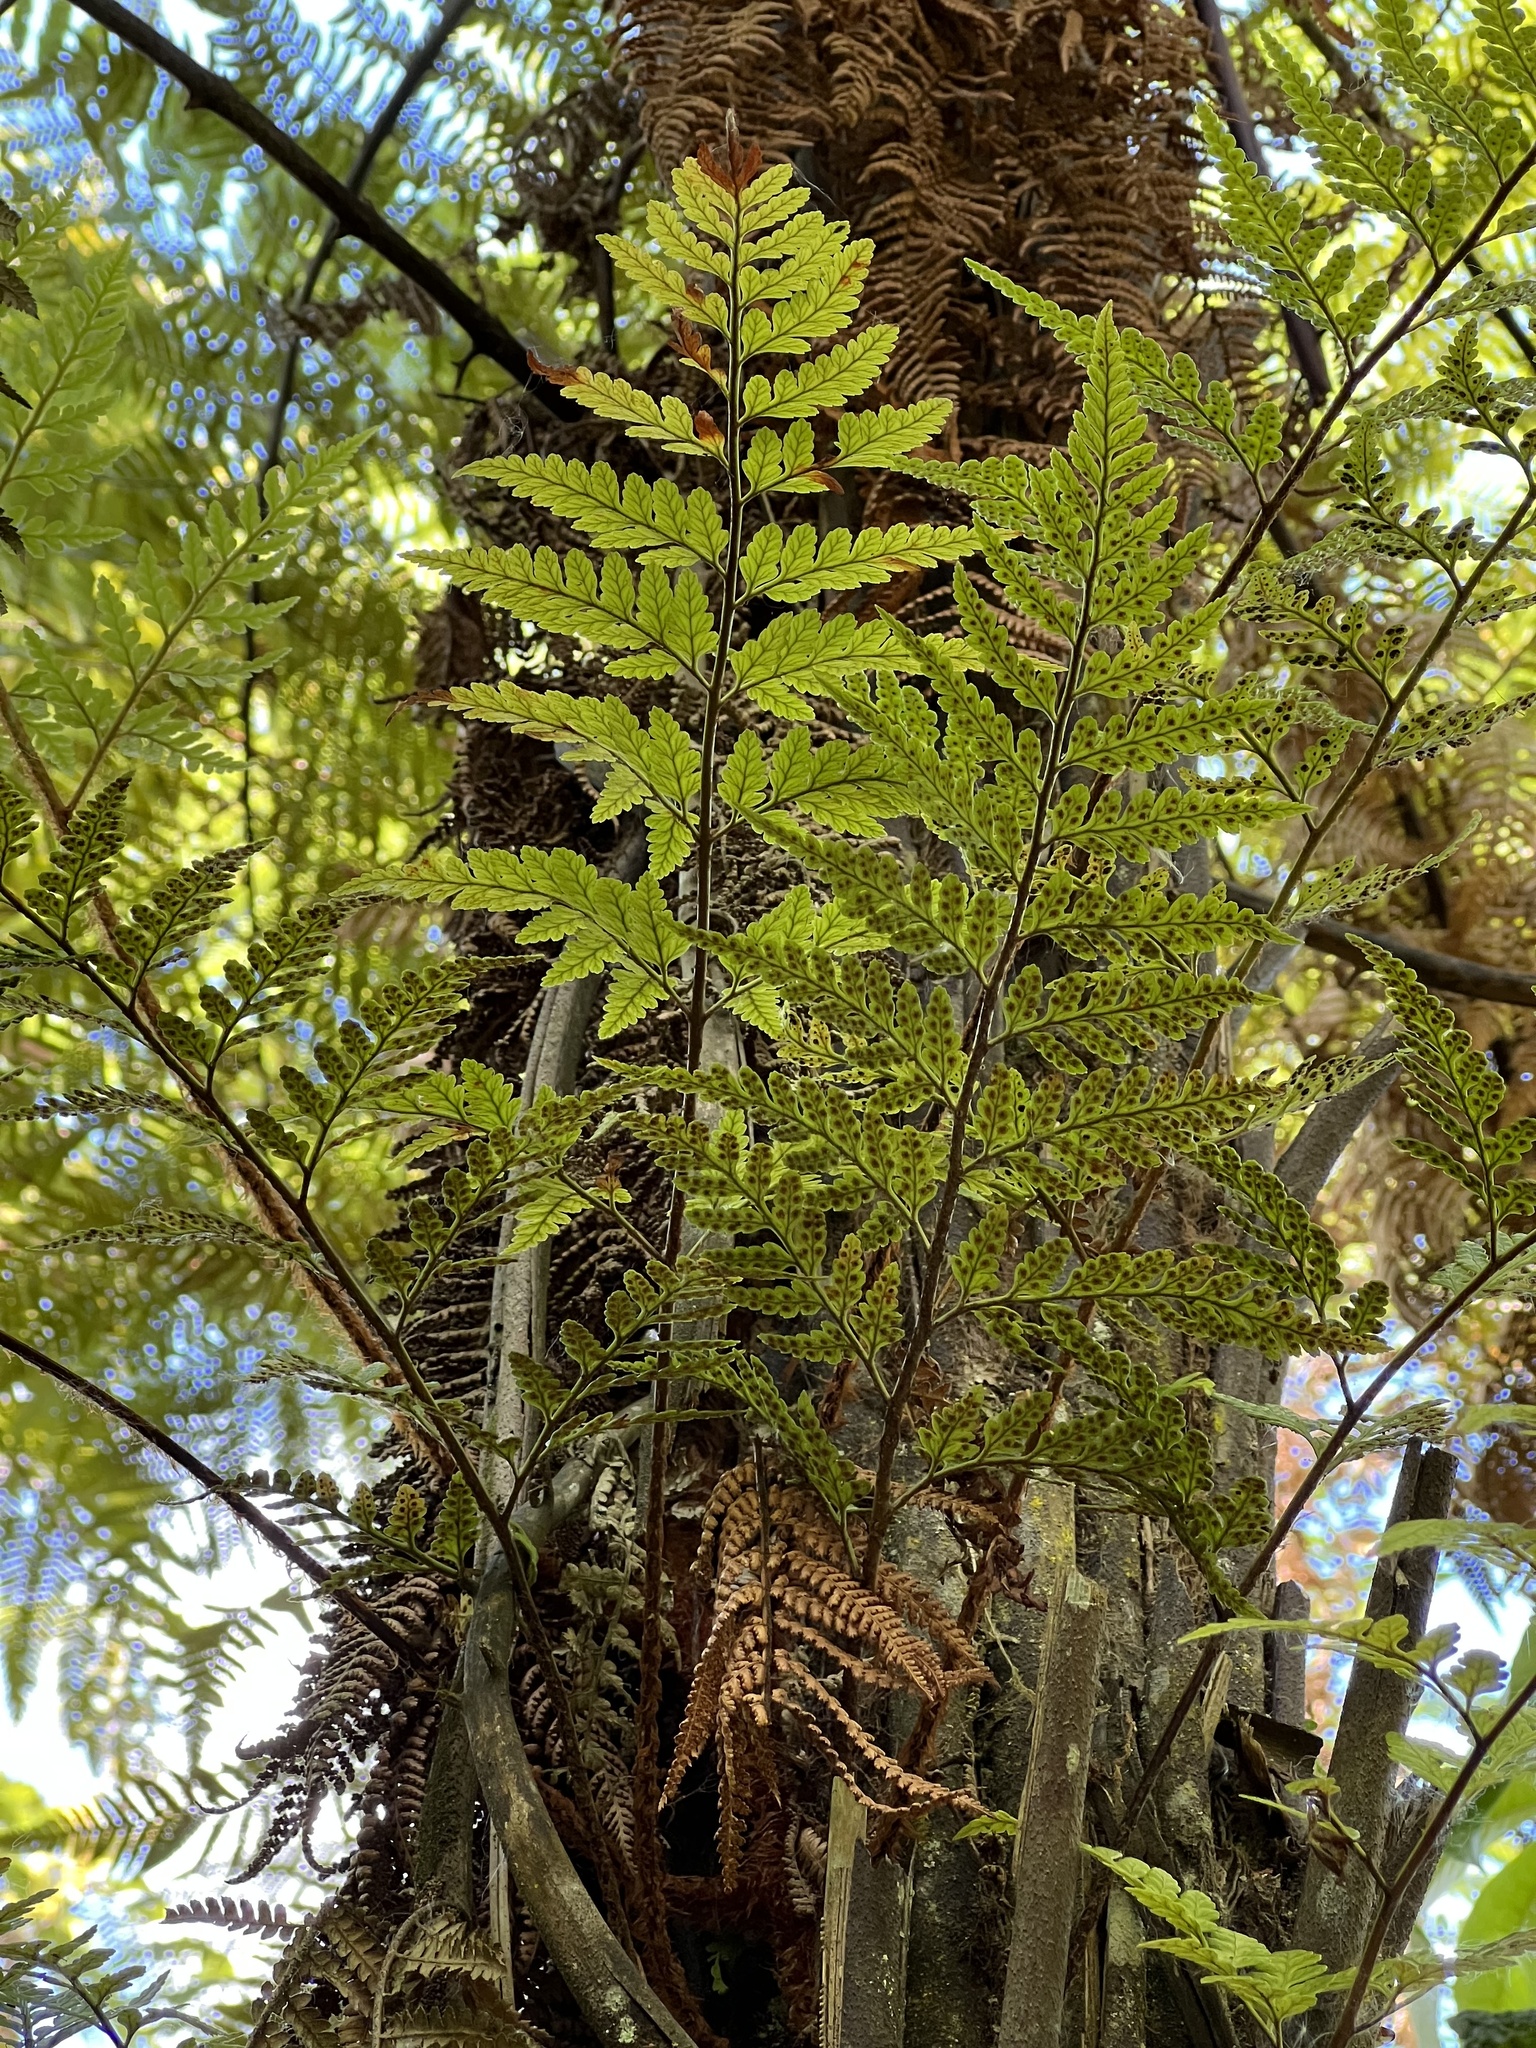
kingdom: Plantae
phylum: Tracheophyta
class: Polypodiopsida
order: Polypodiales
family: Dryopteridaceae
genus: Rumohra
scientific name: Rumohra adiantiformis
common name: Leather fern
